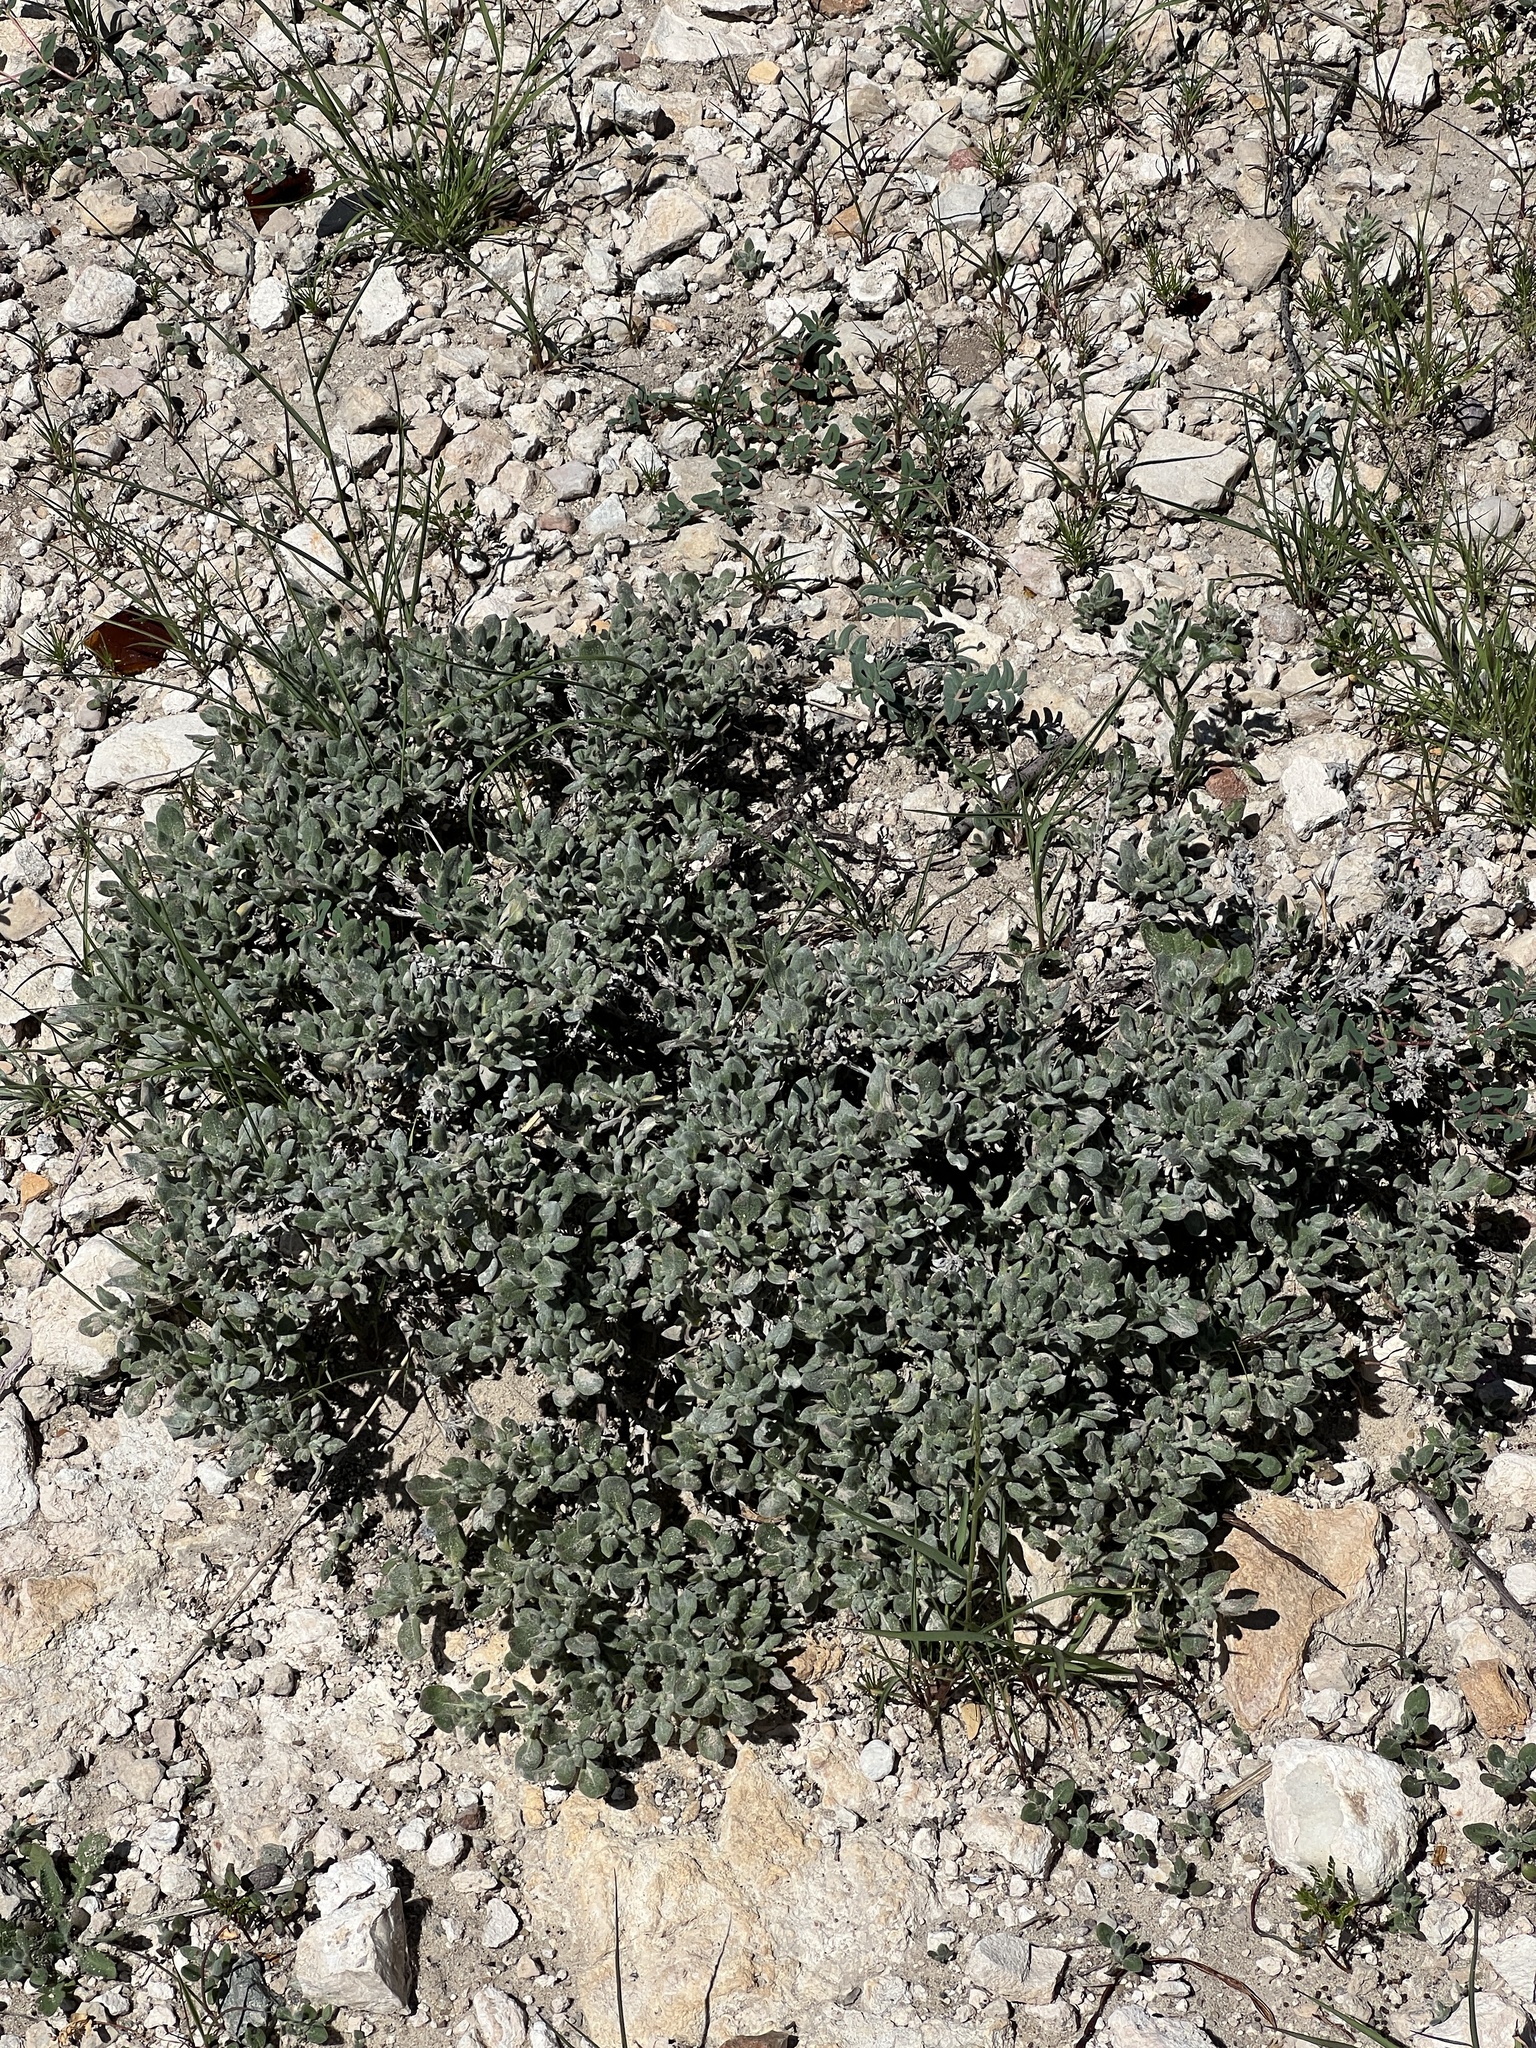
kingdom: Plantae
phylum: Tracheophyta
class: Magnoliopsida
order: Boraginales
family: Ehretiaceae
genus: Tiquilia
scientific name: Tiquilia canescens
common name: Hairy tiquilia
